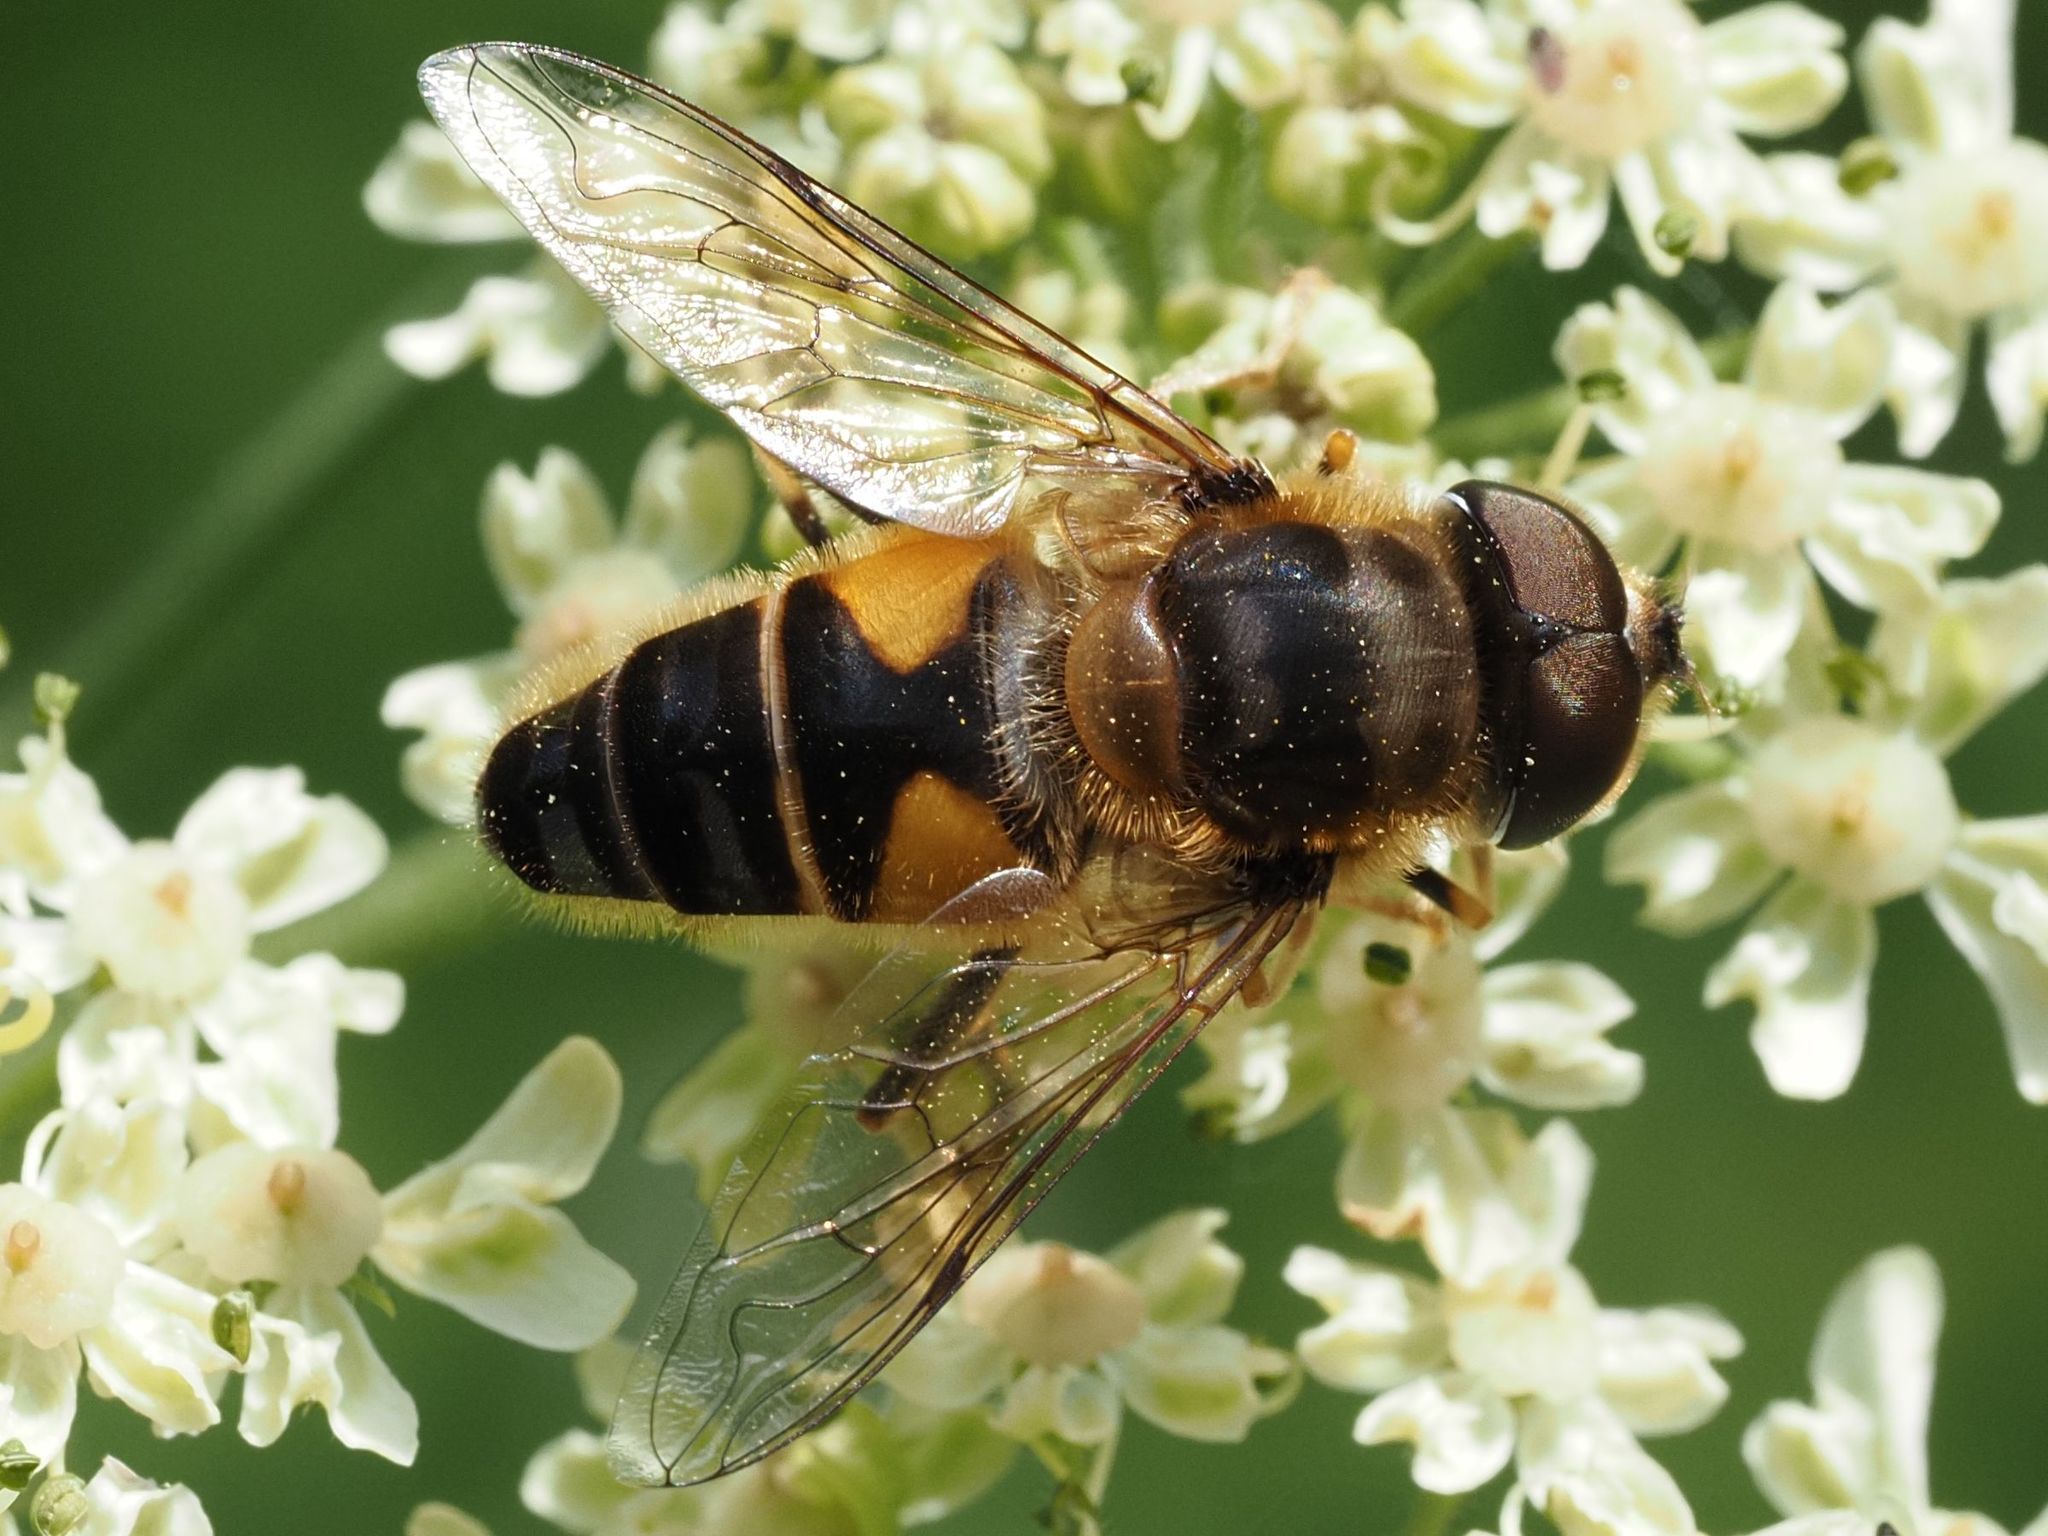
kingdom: Animalia
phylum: Arthropoda
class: Insecta
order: Diptera
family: Syrphidae
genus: Eristalis
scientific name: Eristalis pertinax
